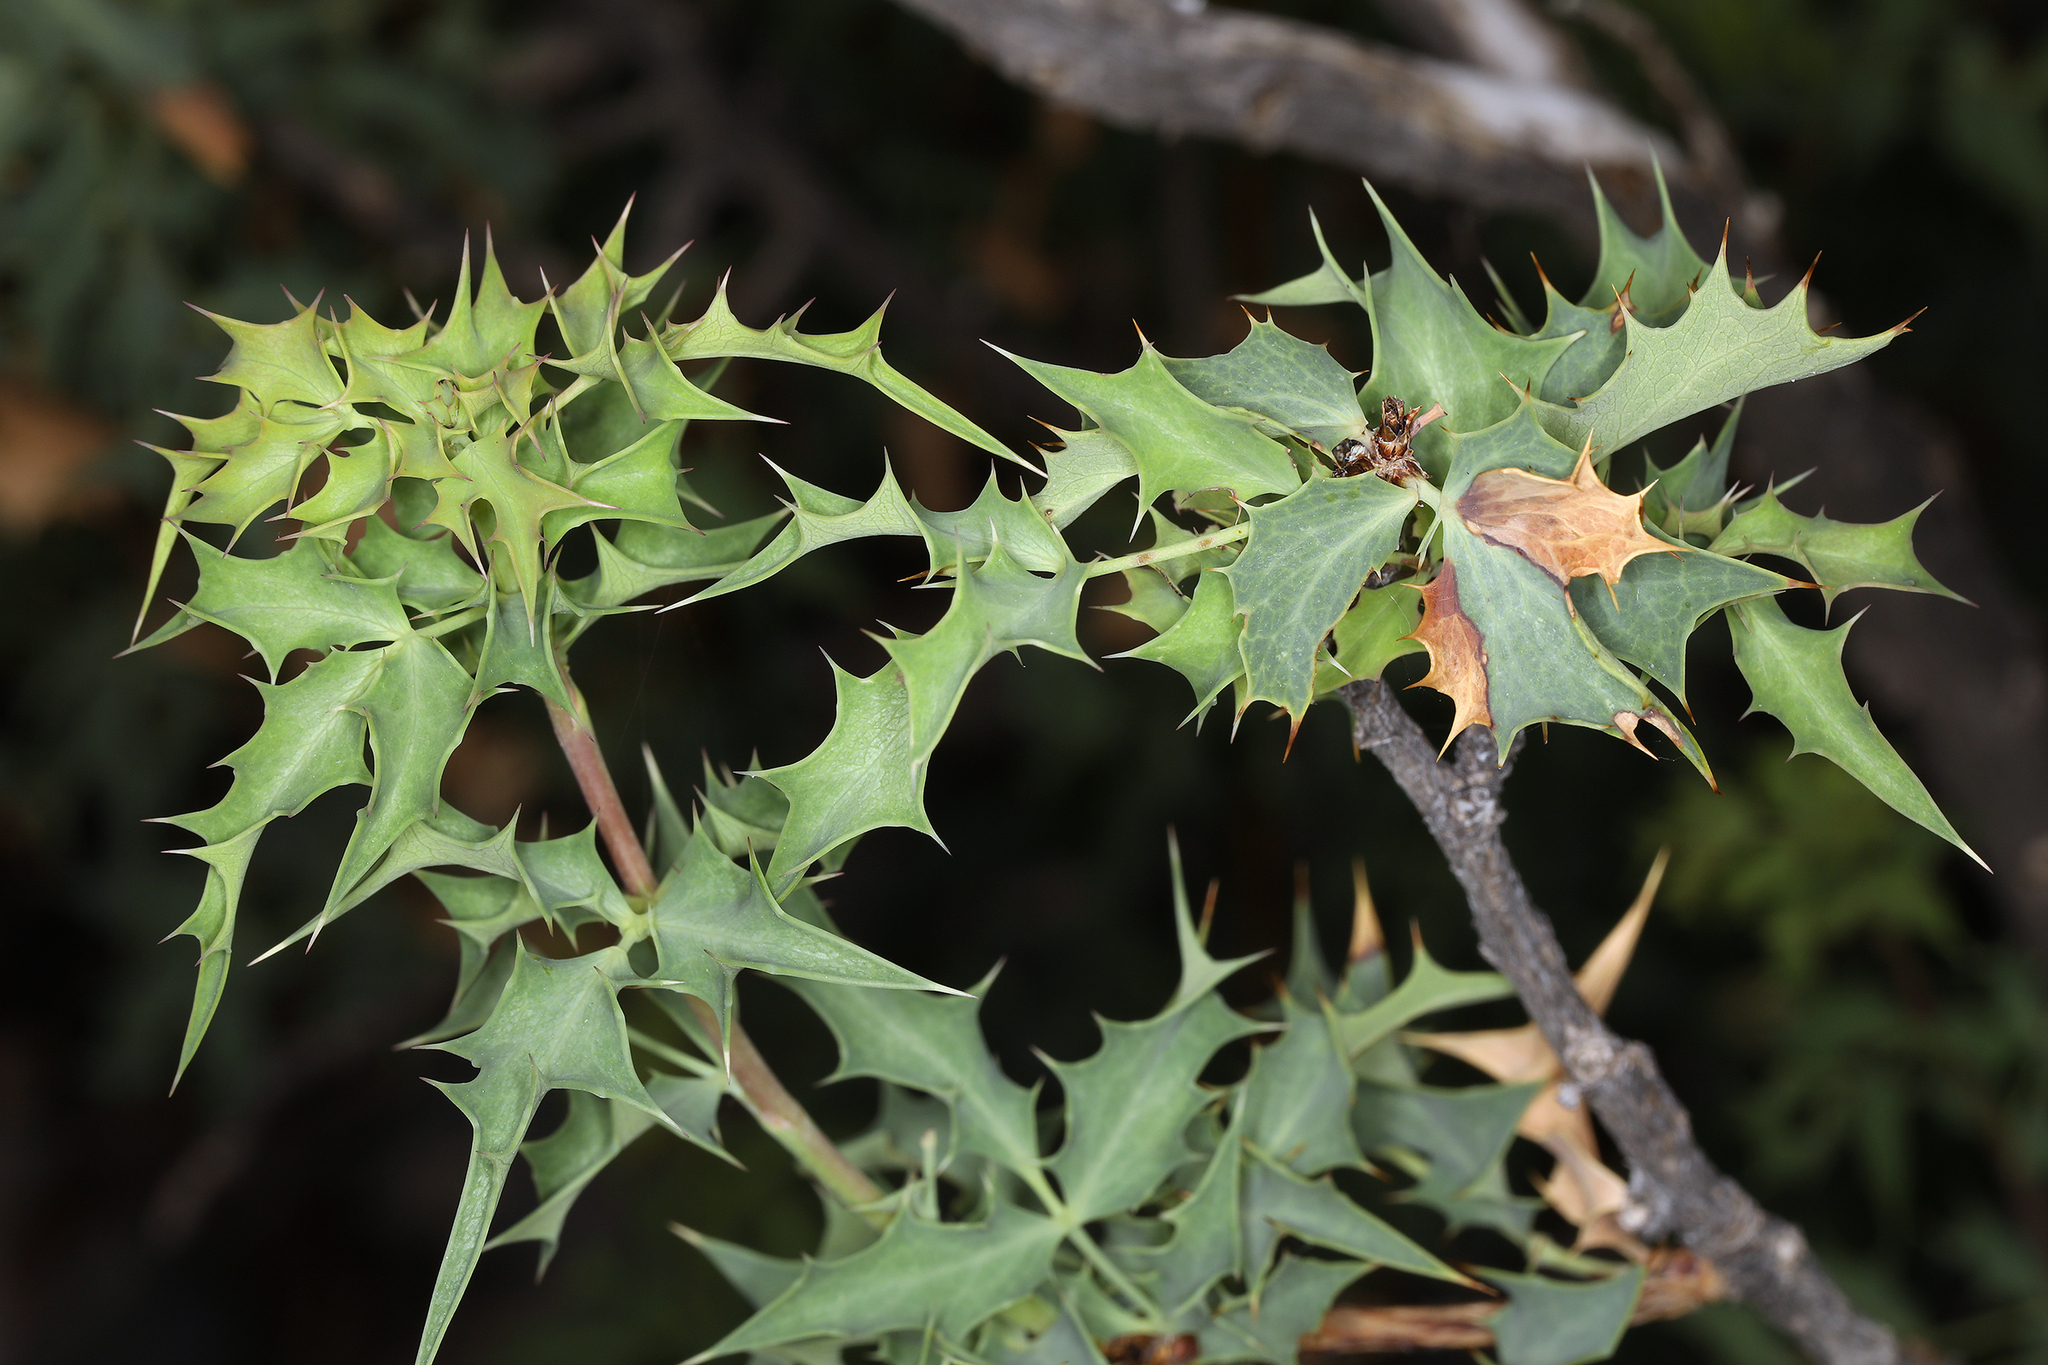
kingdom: Plantae
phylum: Tracheophyta
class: Magnoliopsida
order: Ranunculales
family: Berberidaceae
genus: Alloberberis
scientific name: Alloberberis fremontii
